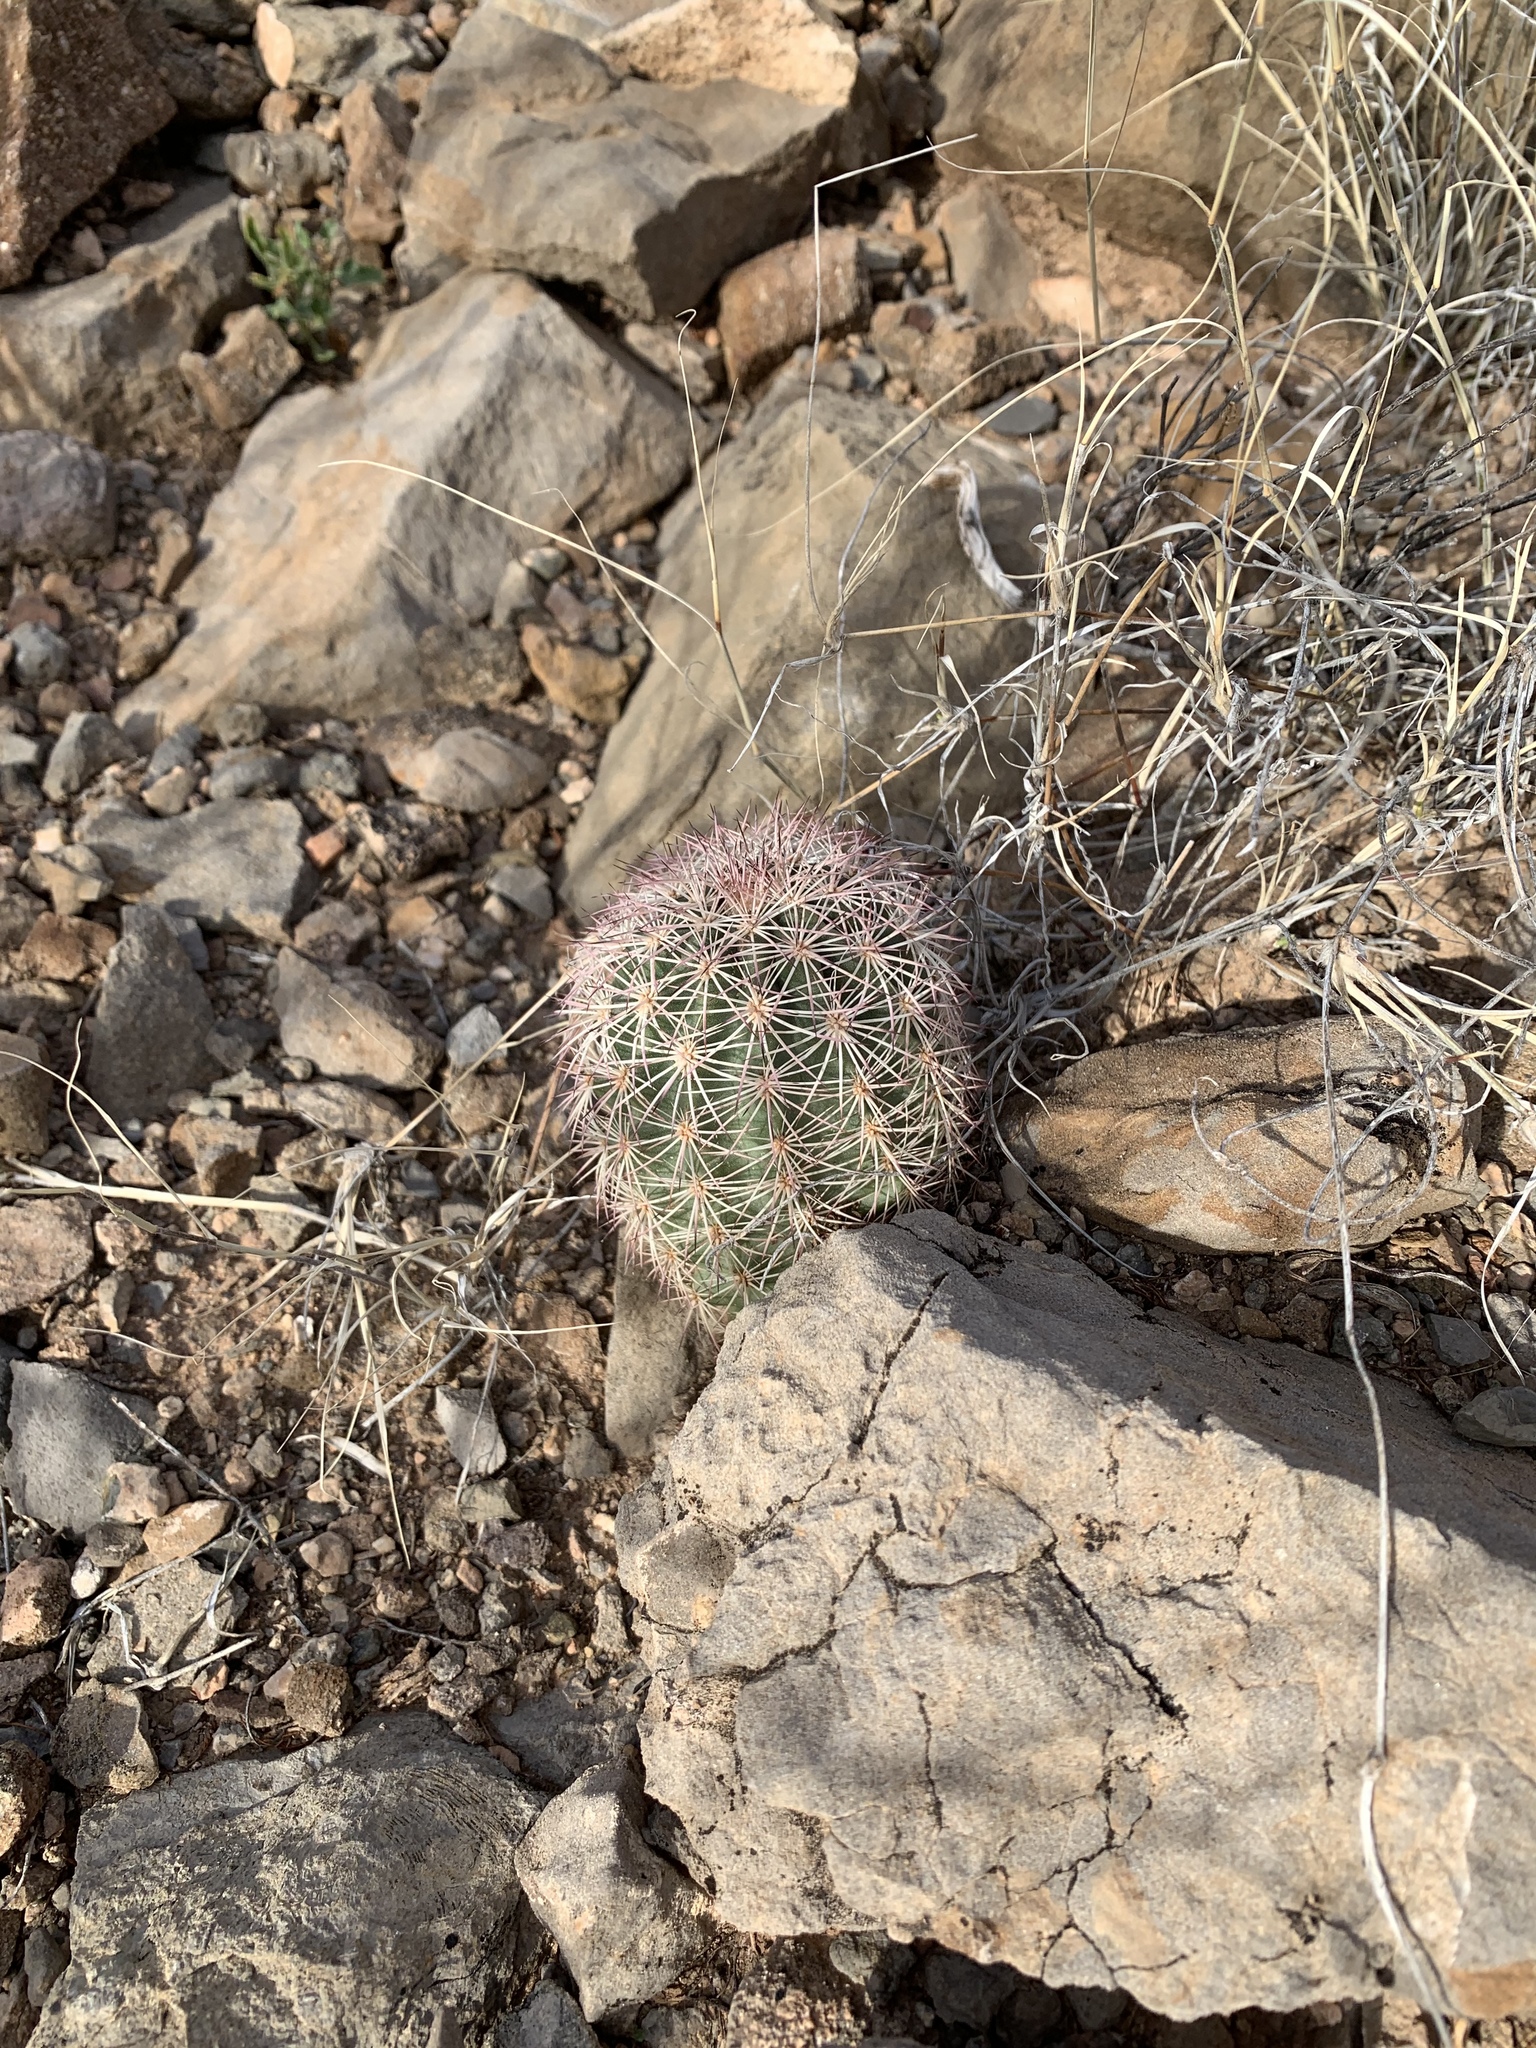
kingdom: Plantae
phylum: Tracheophyta
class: Magnoliopsida
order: Caryophyllales
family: Cactaceae
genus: Echinocereus
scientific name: Echinocereus dasyacanthus
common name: Spiny hedgehog cactus
